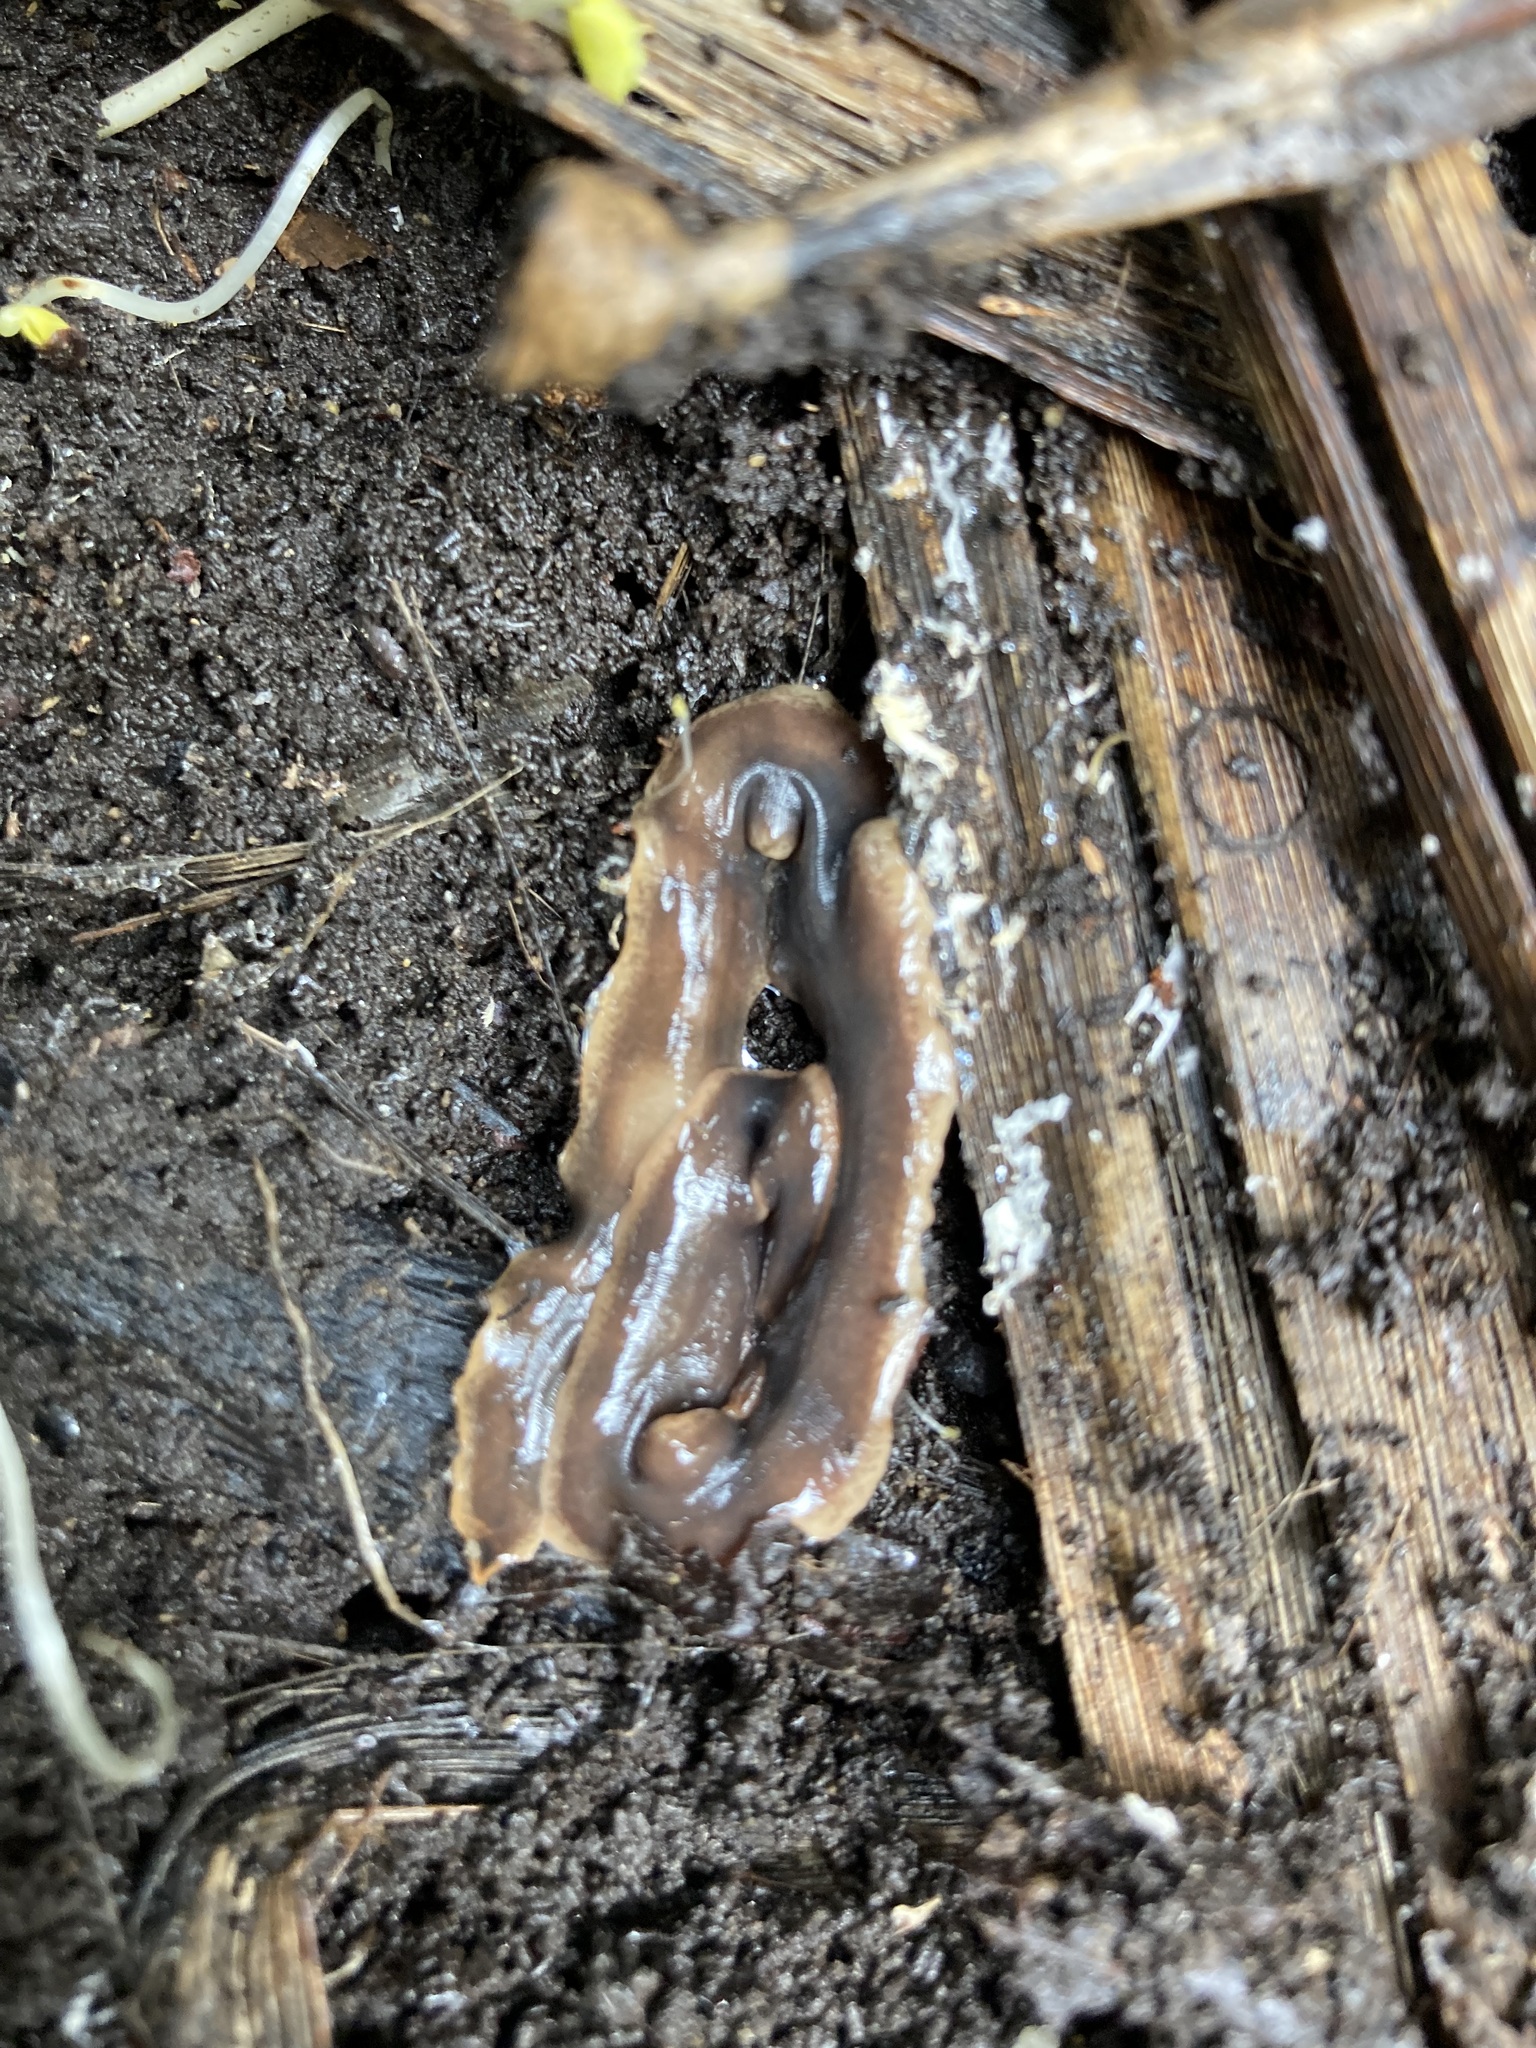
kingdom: Animalia
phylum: Platyhelminthes
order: Tricladida
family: Geoplanidae
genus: Arthurdendyus
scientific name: Arthurdendyus triangulatus
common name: New zealand flatworm
